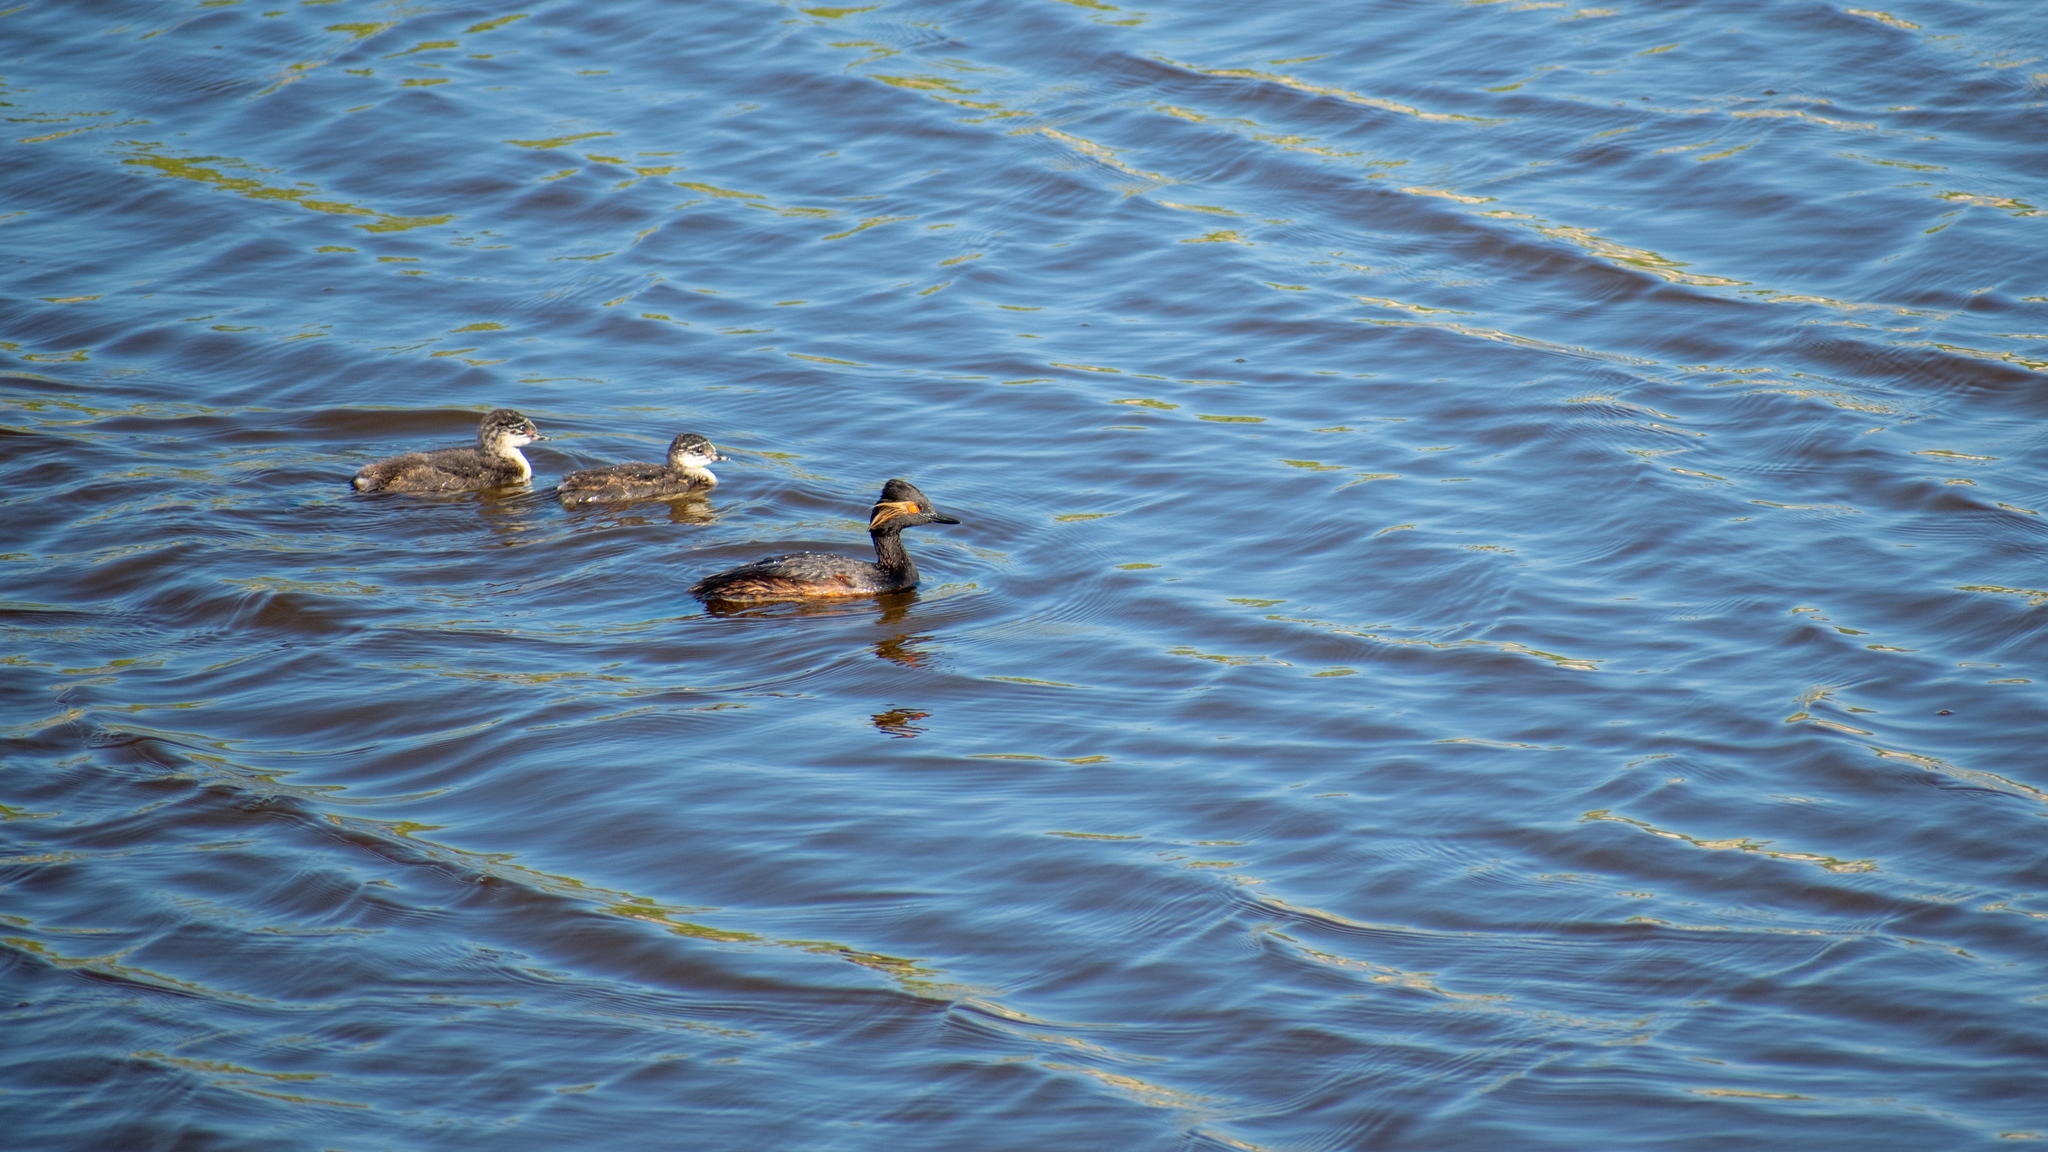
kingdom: Animalia
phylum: Chordata
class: Aves
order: Podicipediformes
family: Podicipedidae
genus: Podiceps
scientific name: Podiceps nigricollis
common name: Black-necked grebe
